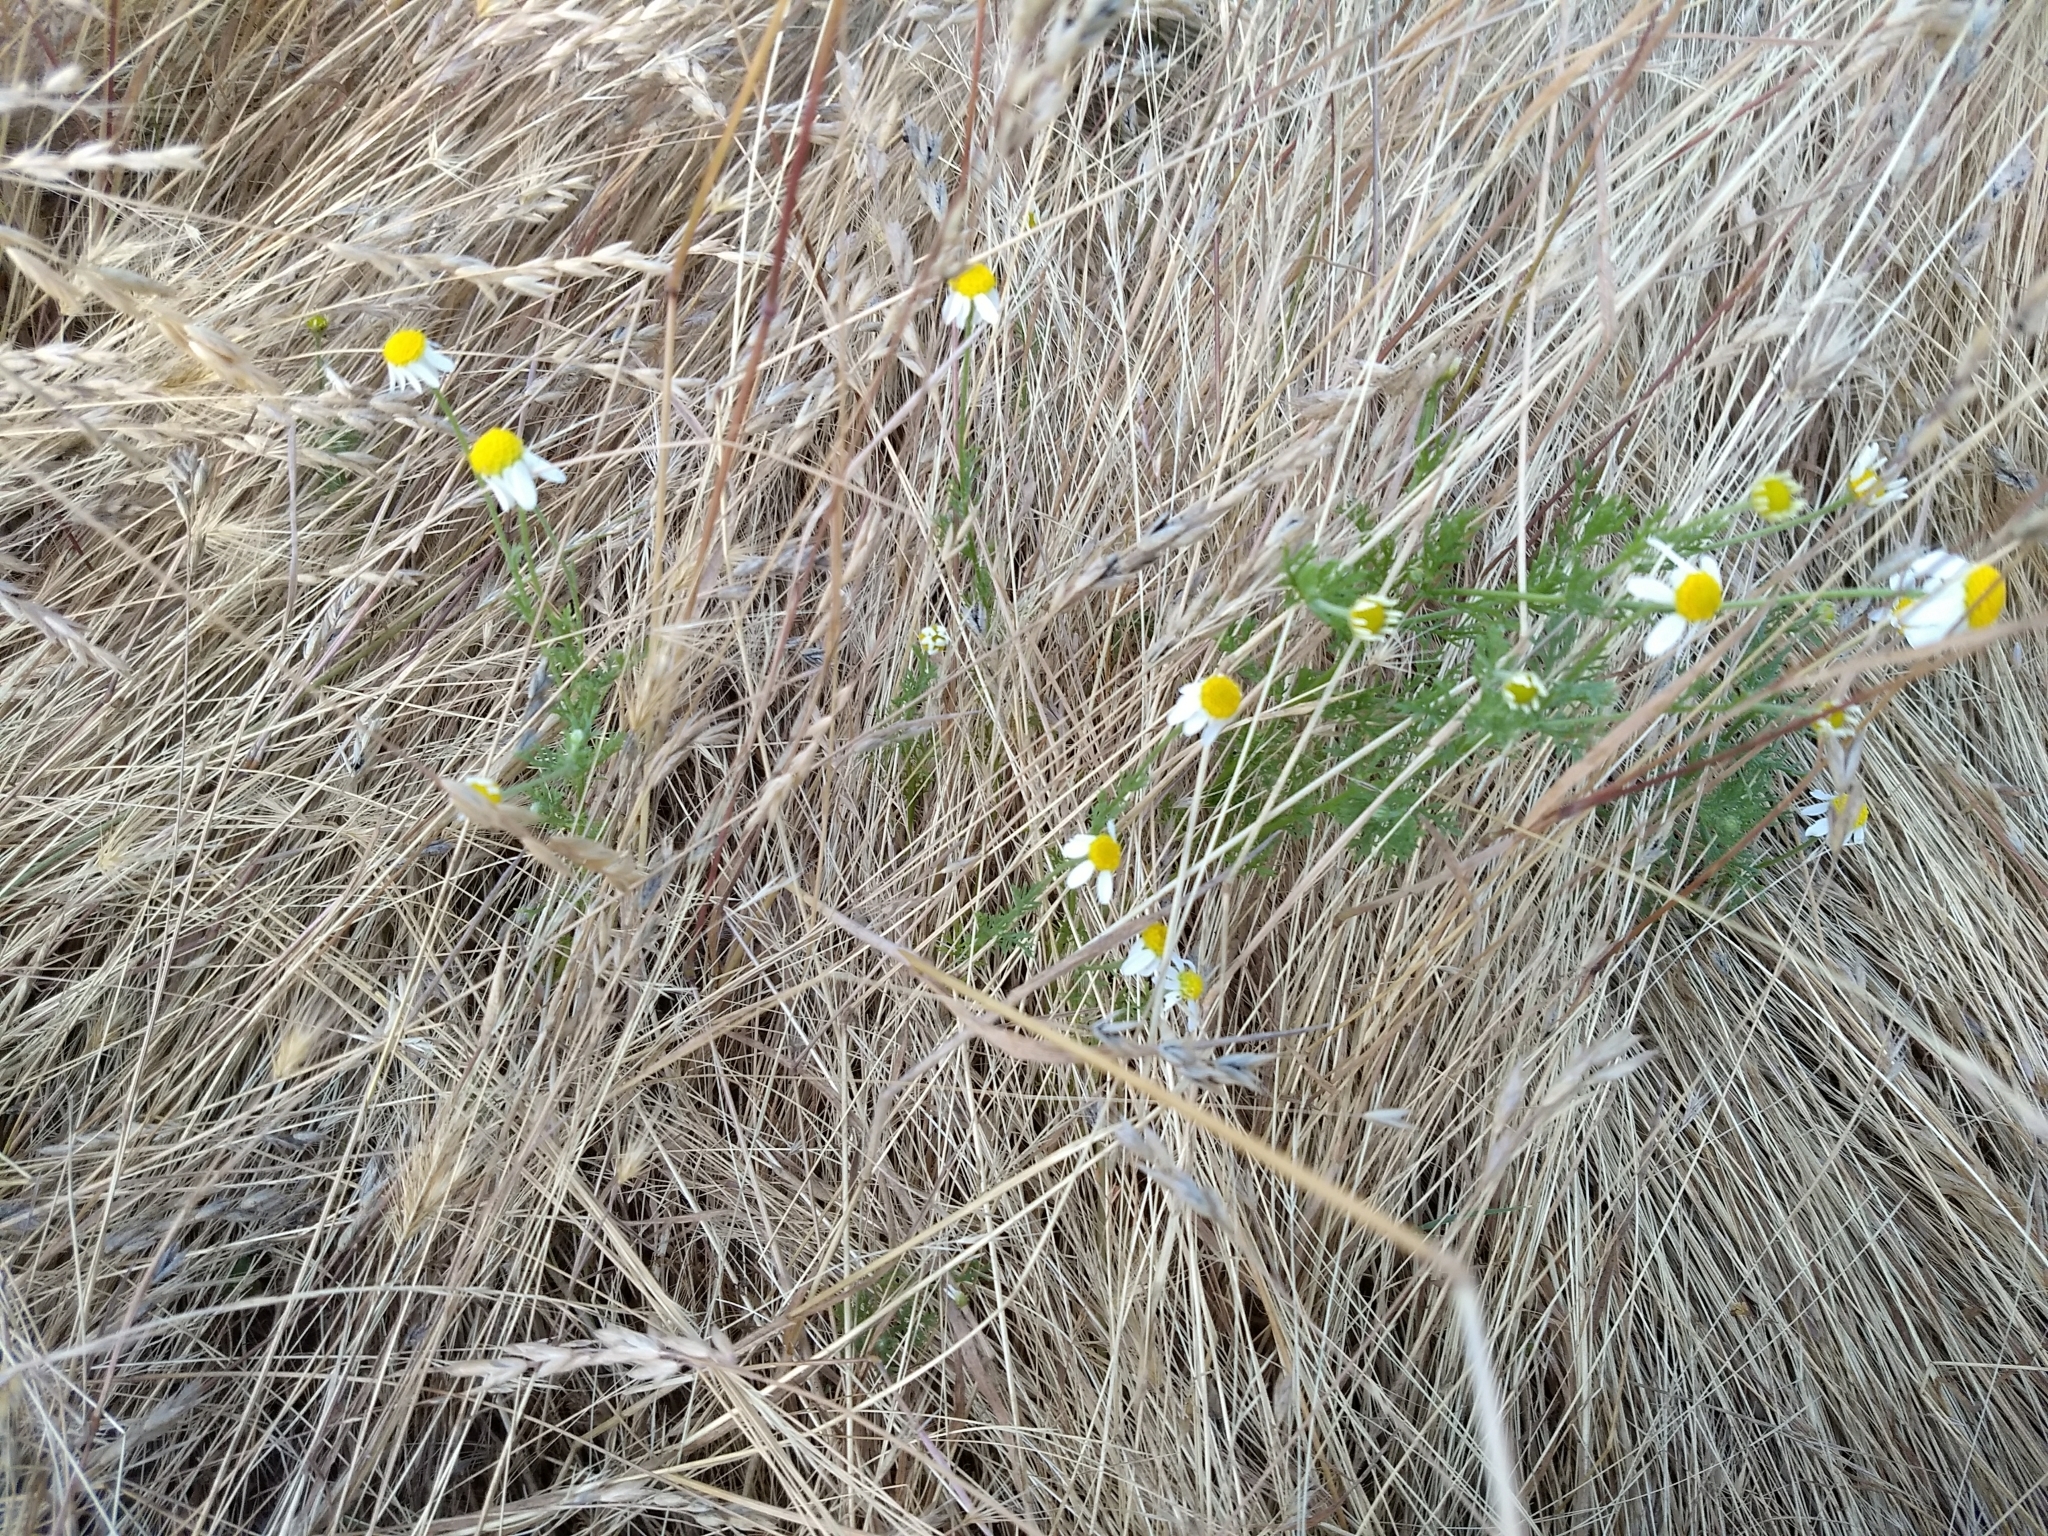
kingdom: Plantae
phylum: Tracheophyta
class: Magnoliopsida
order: Asterales
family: Asteraceae
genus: Matricaria
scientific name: Matricaria chamomilla
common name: Scented mayweed
